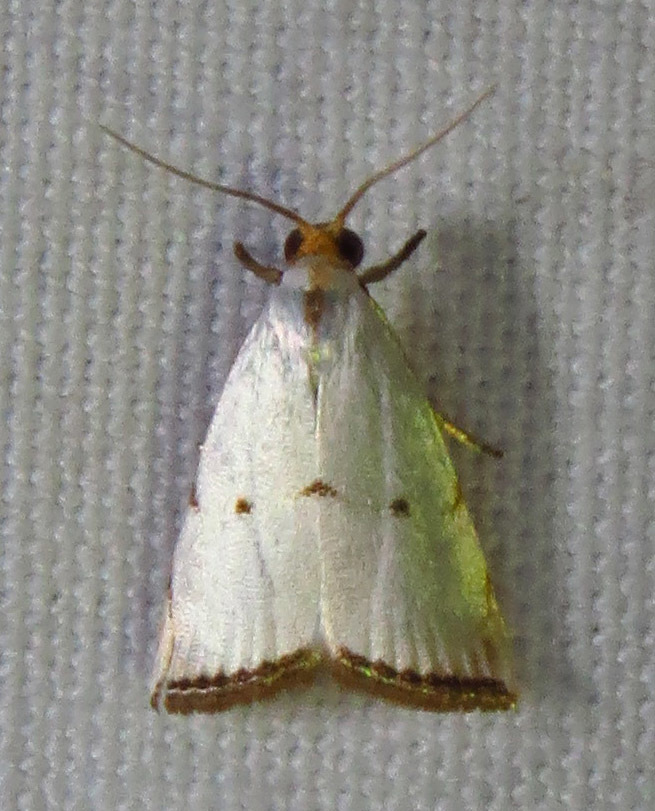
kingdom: Animalia
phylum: Arthropoda
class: Insecta
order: Lepidoptera
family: Crambidae
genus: Argyria
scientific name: Argyria pusillalis
